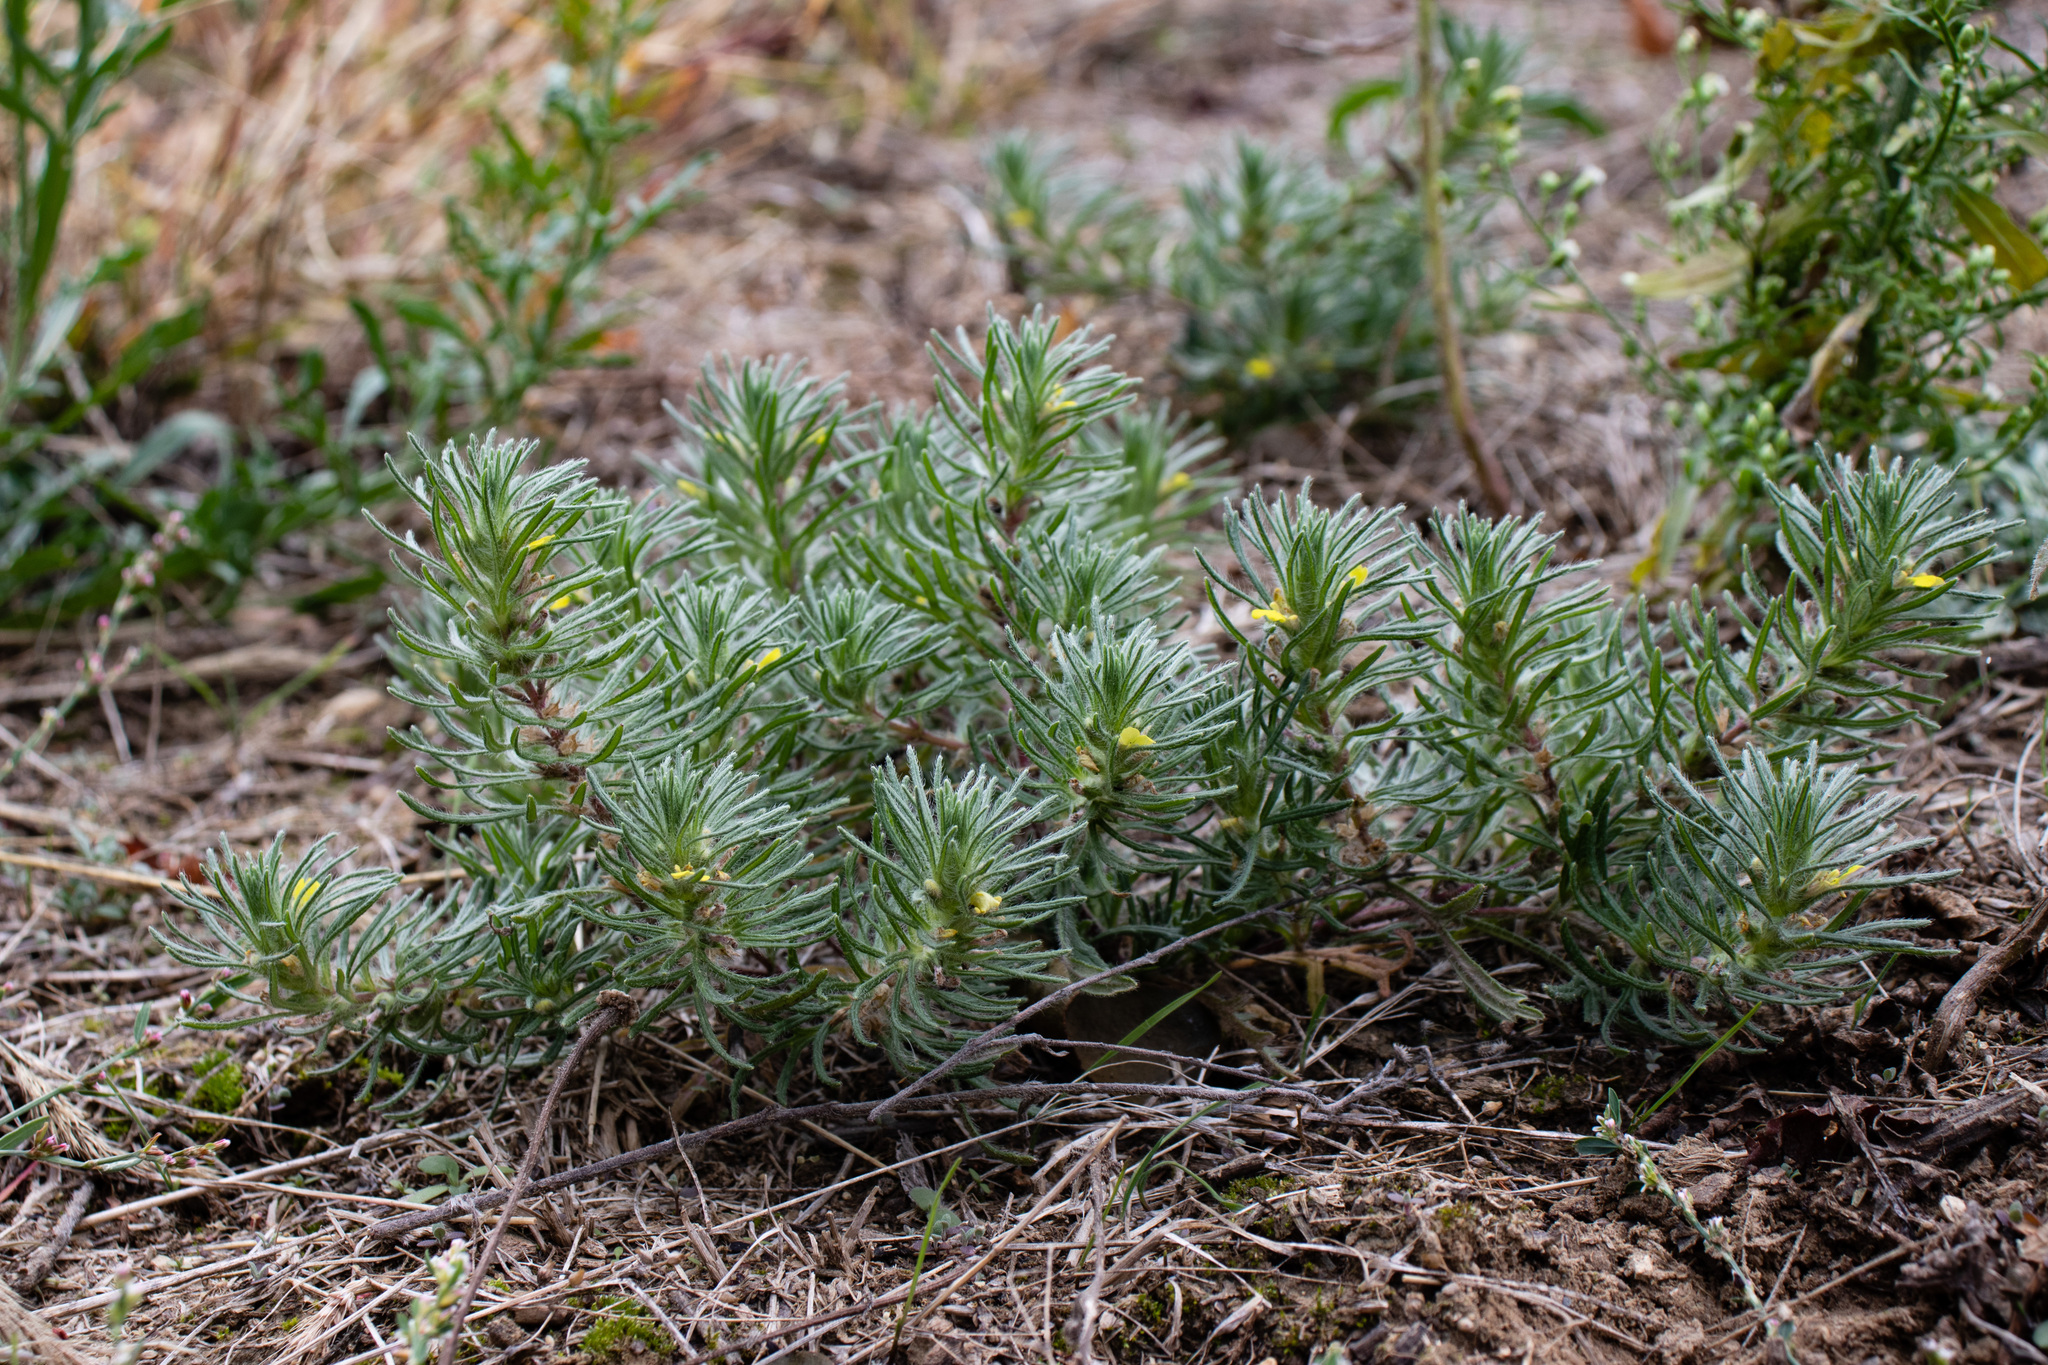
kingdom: Plantae
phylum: Tracheophyta
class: Magnoliopsida
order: Lamiales
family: Lamiaceae
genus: Ajuga
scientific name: Ajuga chamaepitys
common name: Ground-pine
